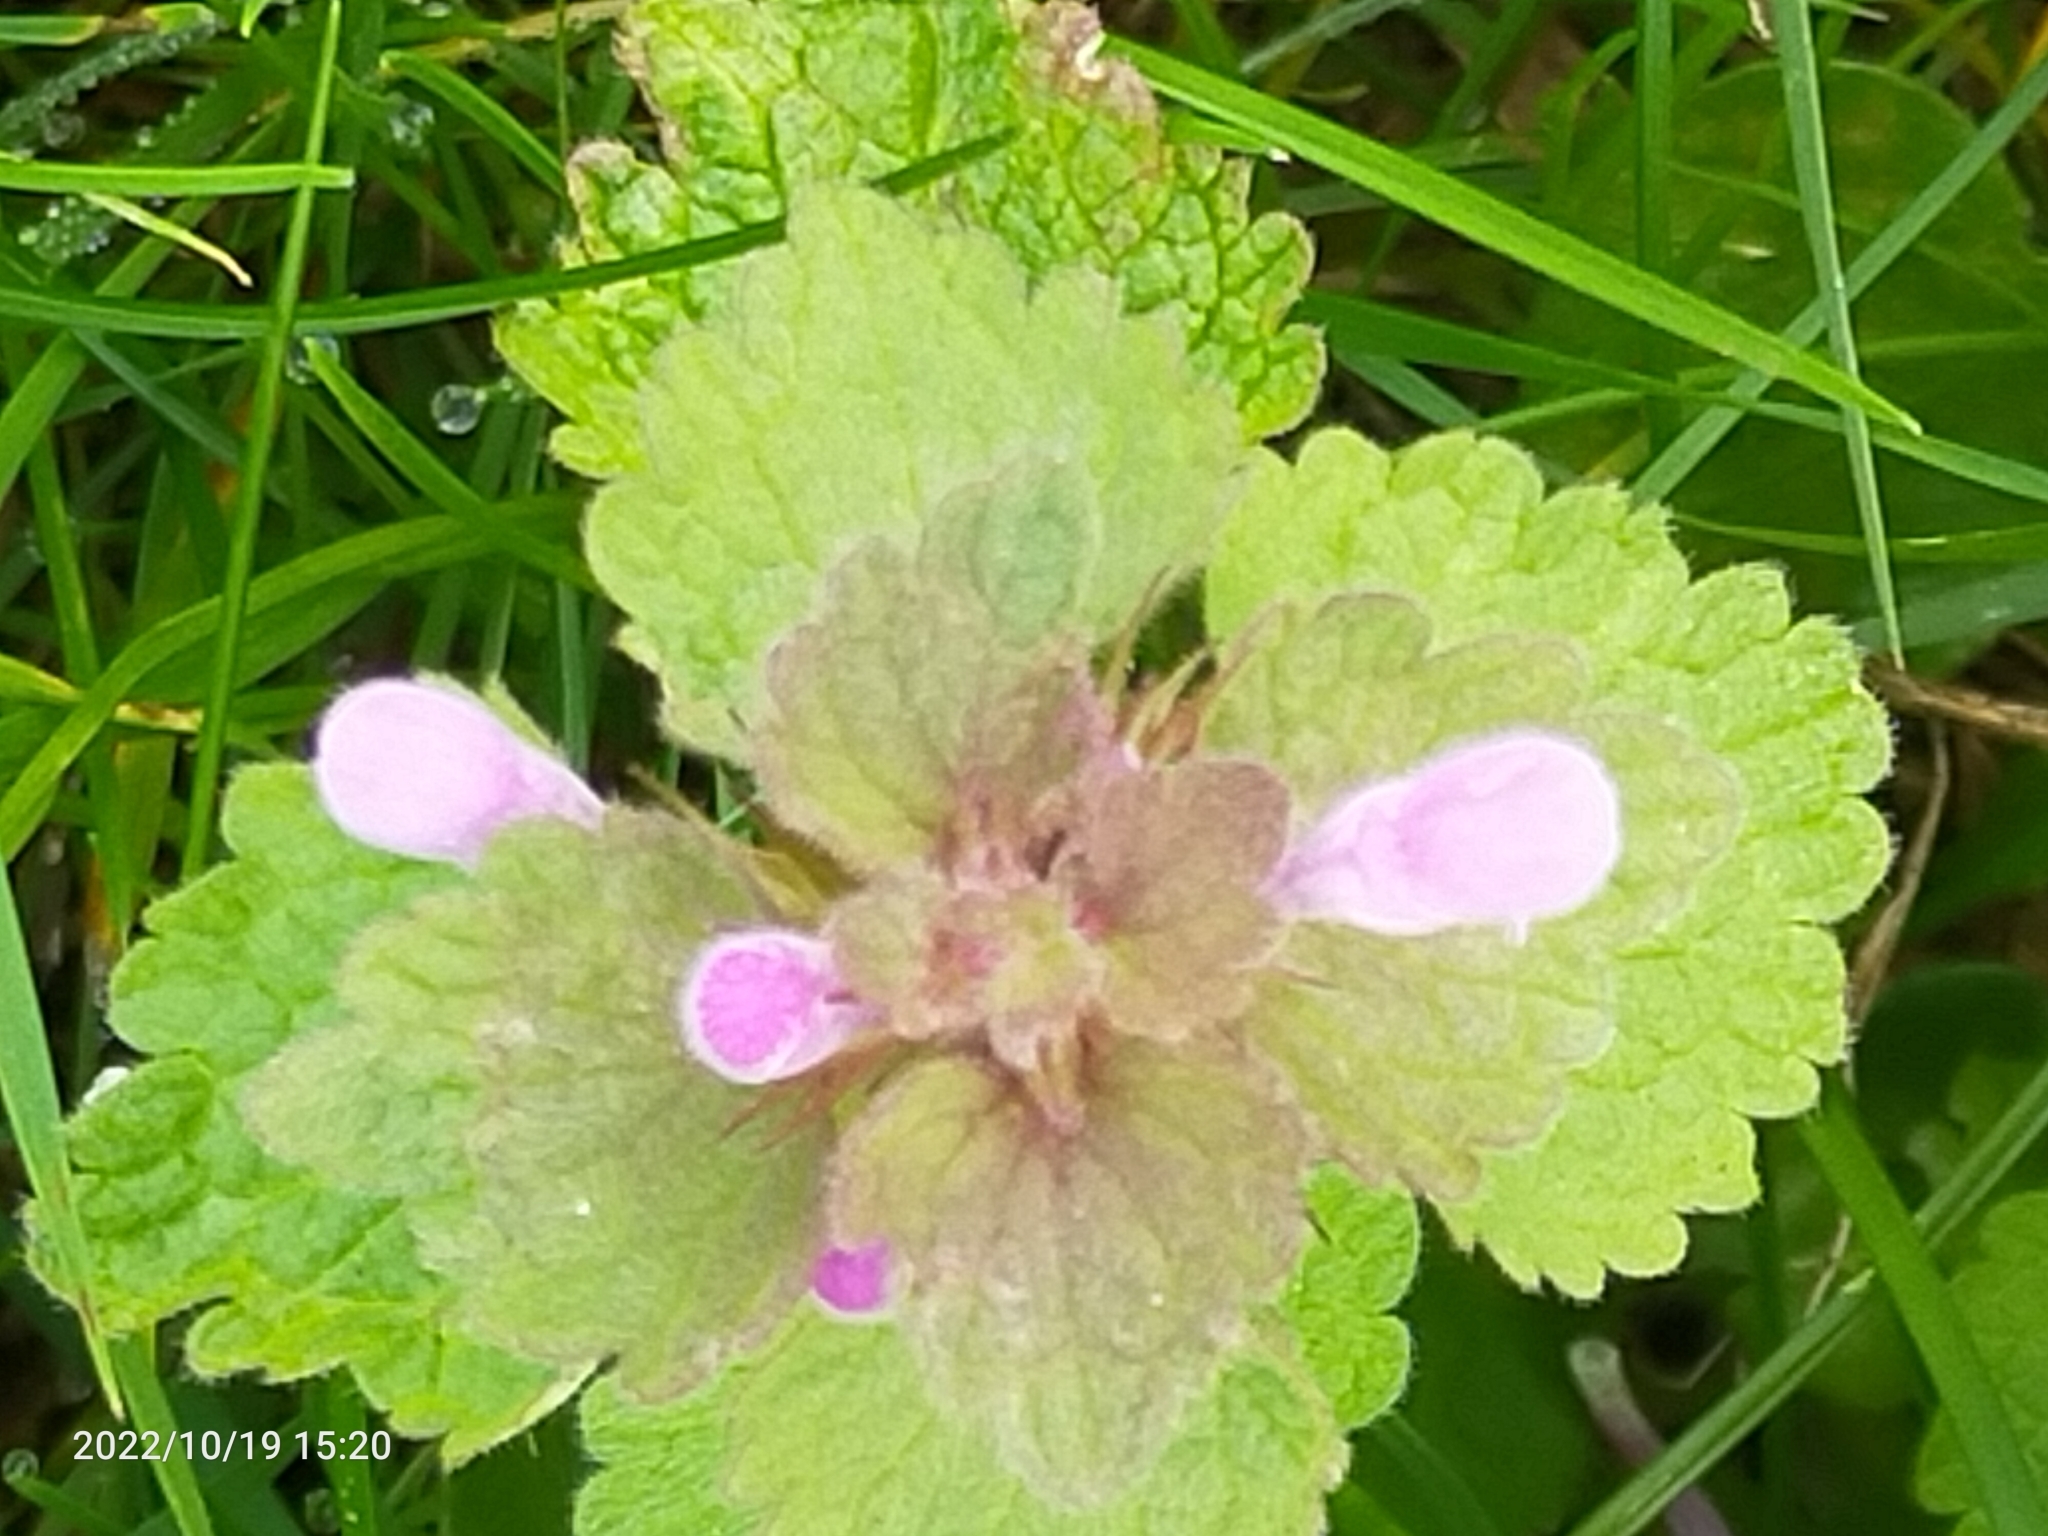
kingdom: Plantae
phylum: Tracheophyta
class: Magnoliopsida
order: Lamiales
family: Lamiaceae
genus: Lamium
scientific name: Lamium purpureum
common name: Red dead-nettle
